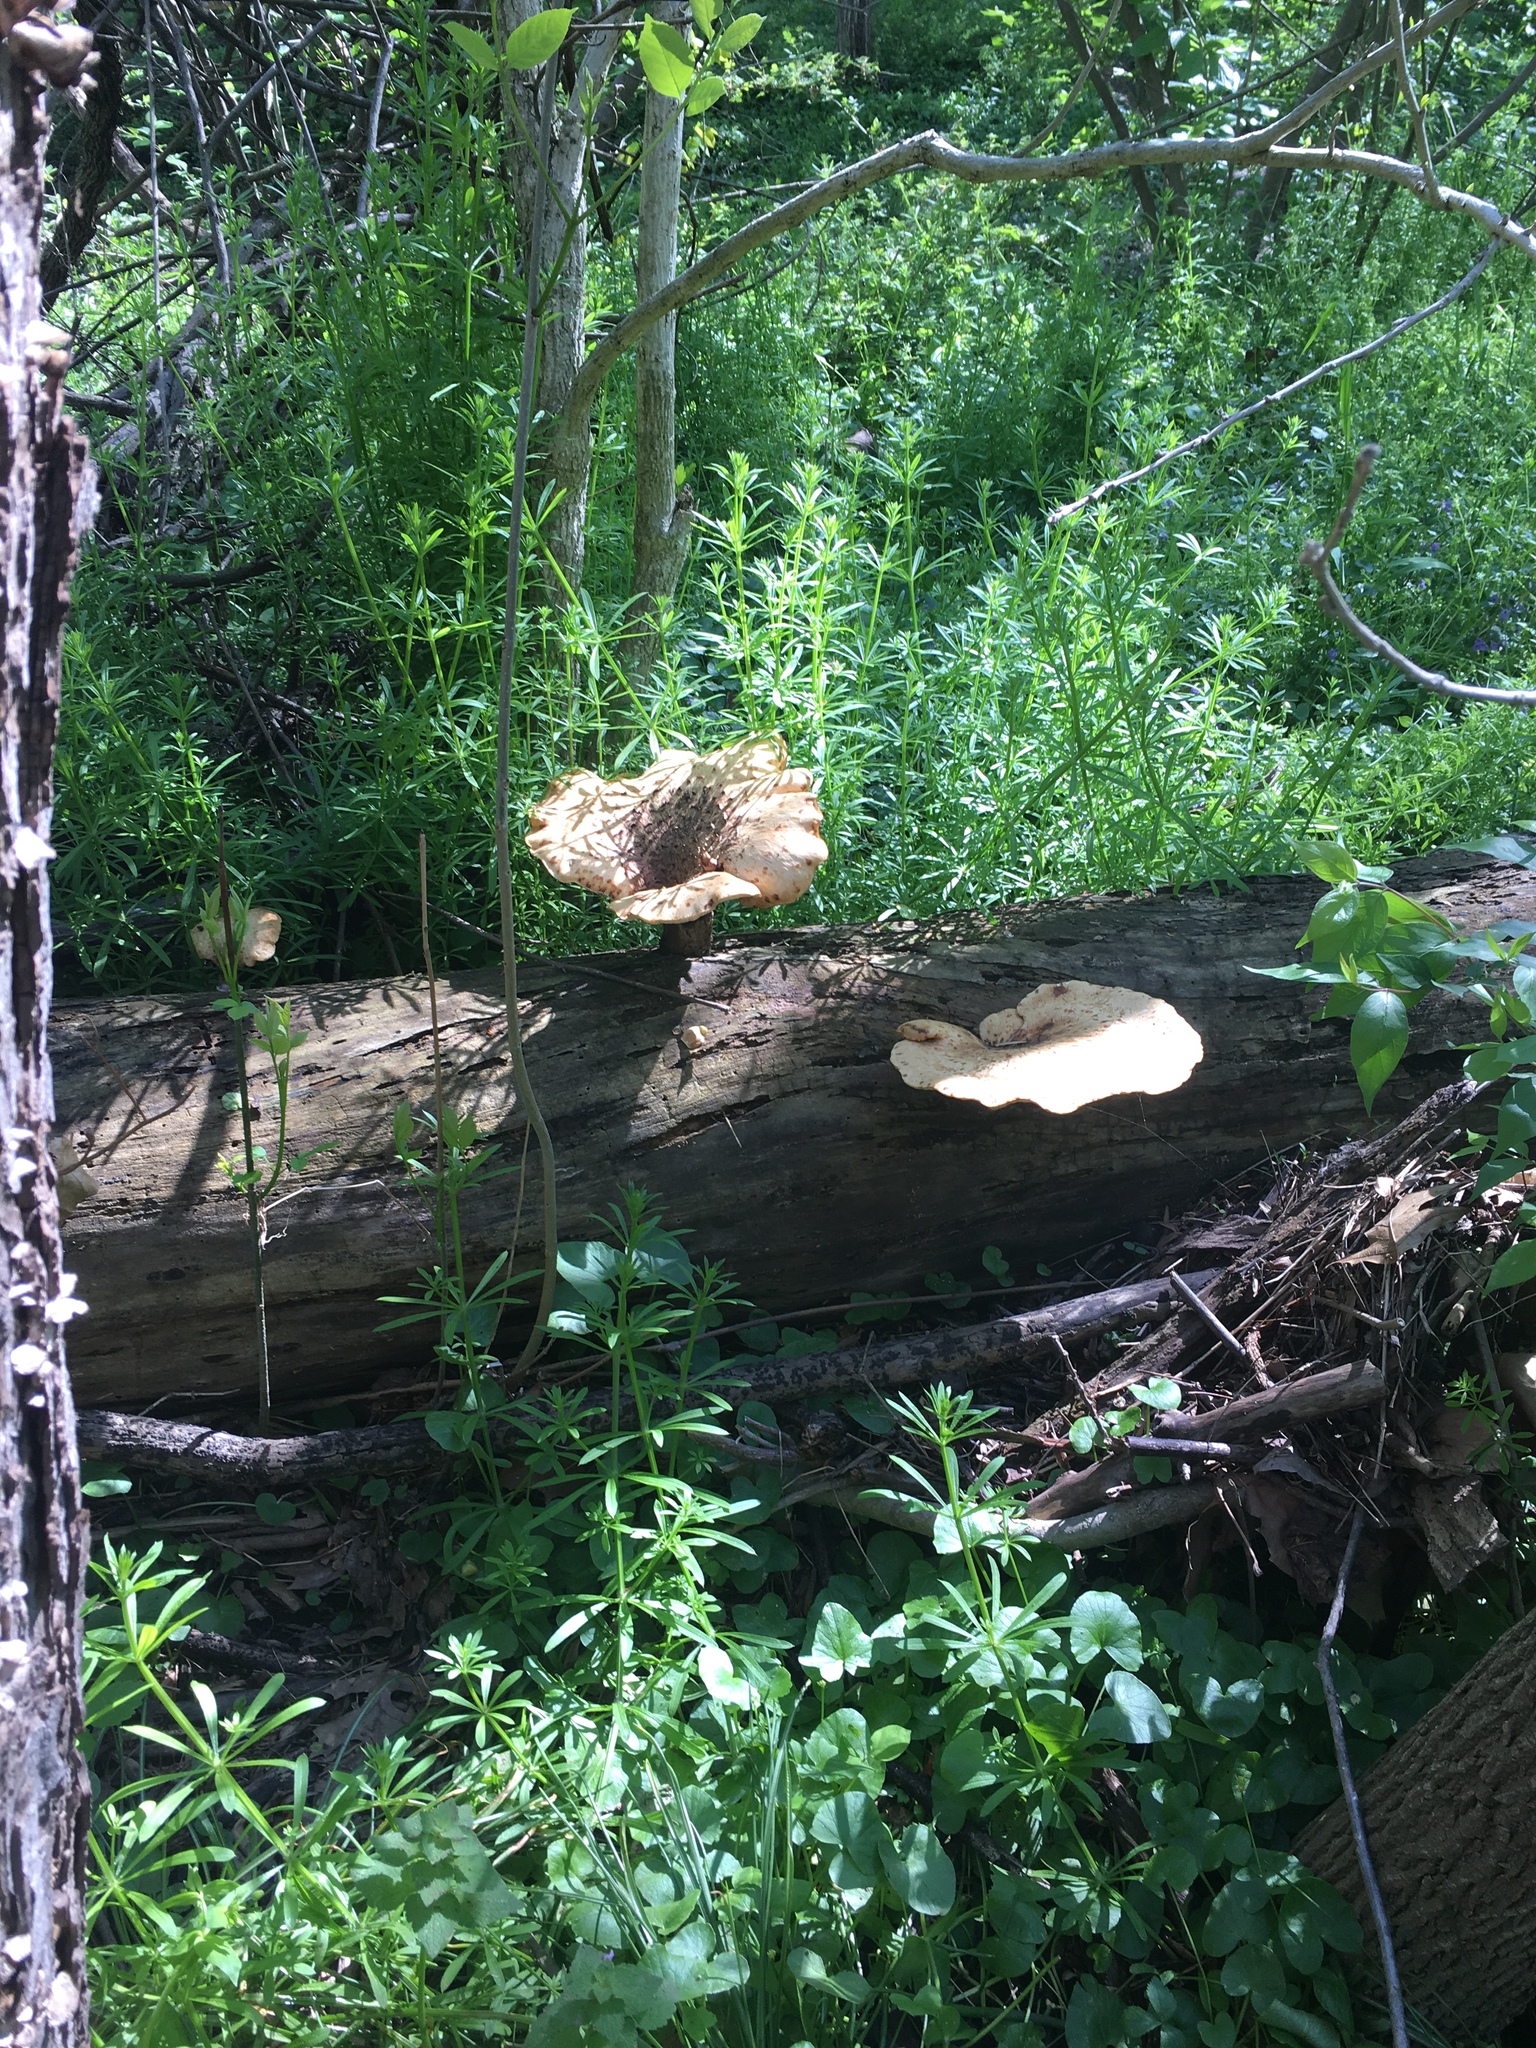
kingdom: Fungi
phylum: Basidiomycota
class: Agaricomycetes
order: Polyporales
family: Polyporaceae
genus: Cerioporus
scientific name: Cerioporus squamosus
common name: Dryad's saddle
